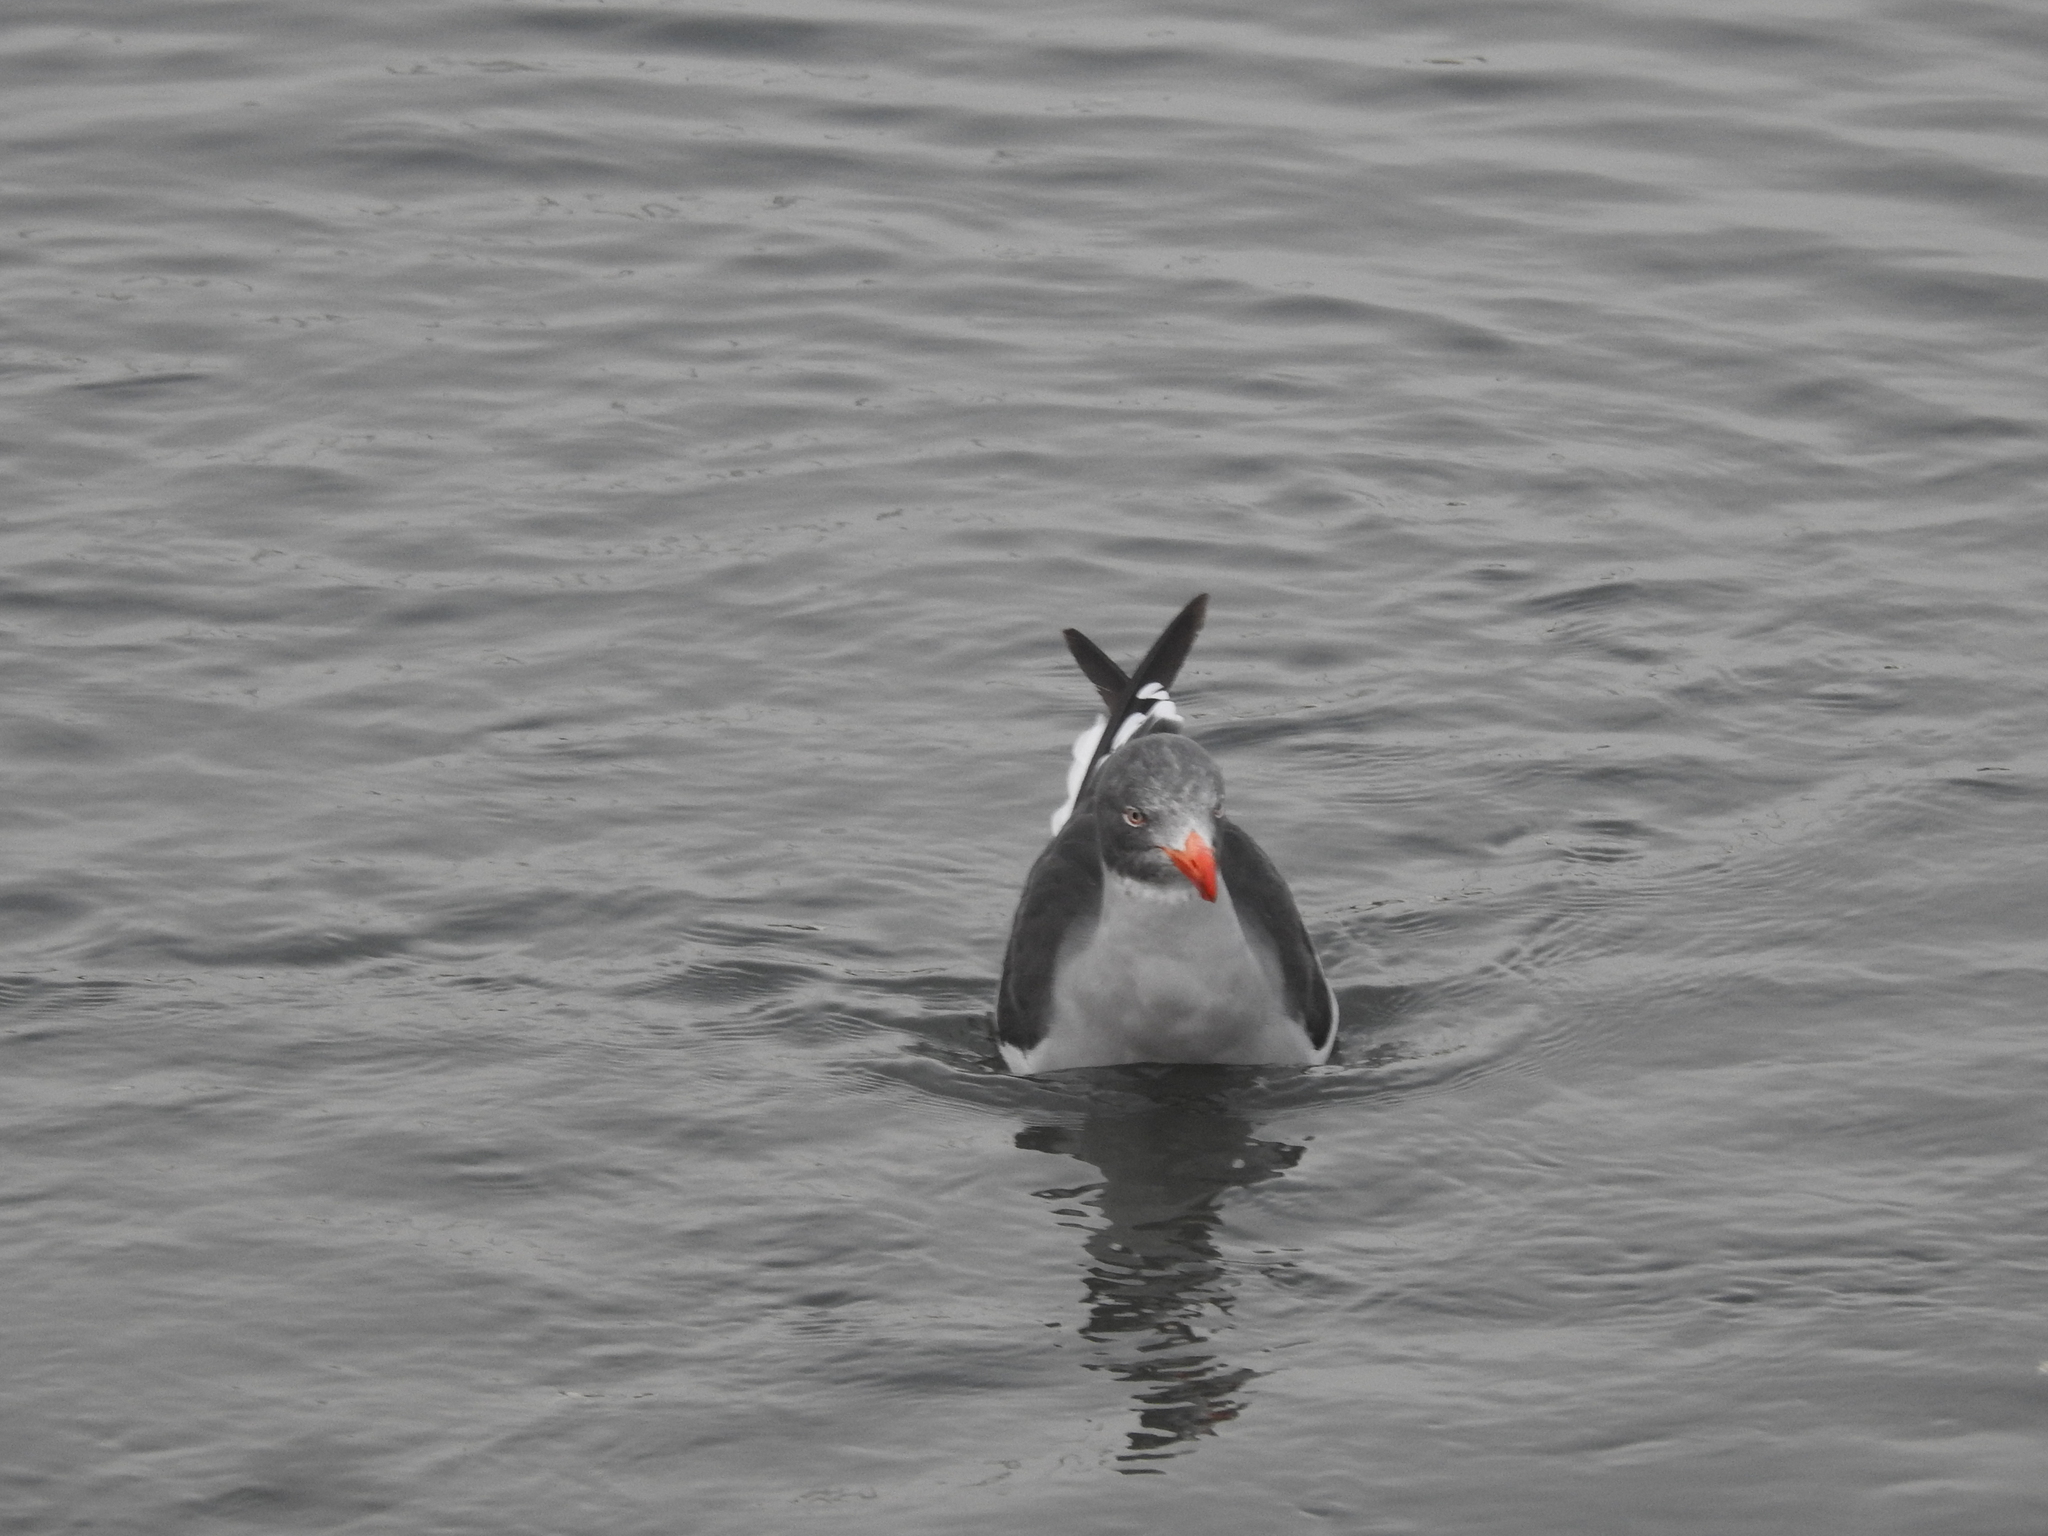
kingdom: Animalia
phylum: Chordata
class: Aves
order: Charadriiformes
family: Laridae
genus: Leucophaeus
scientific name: Leucophaeus scoresbii
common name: Dolphin gull
